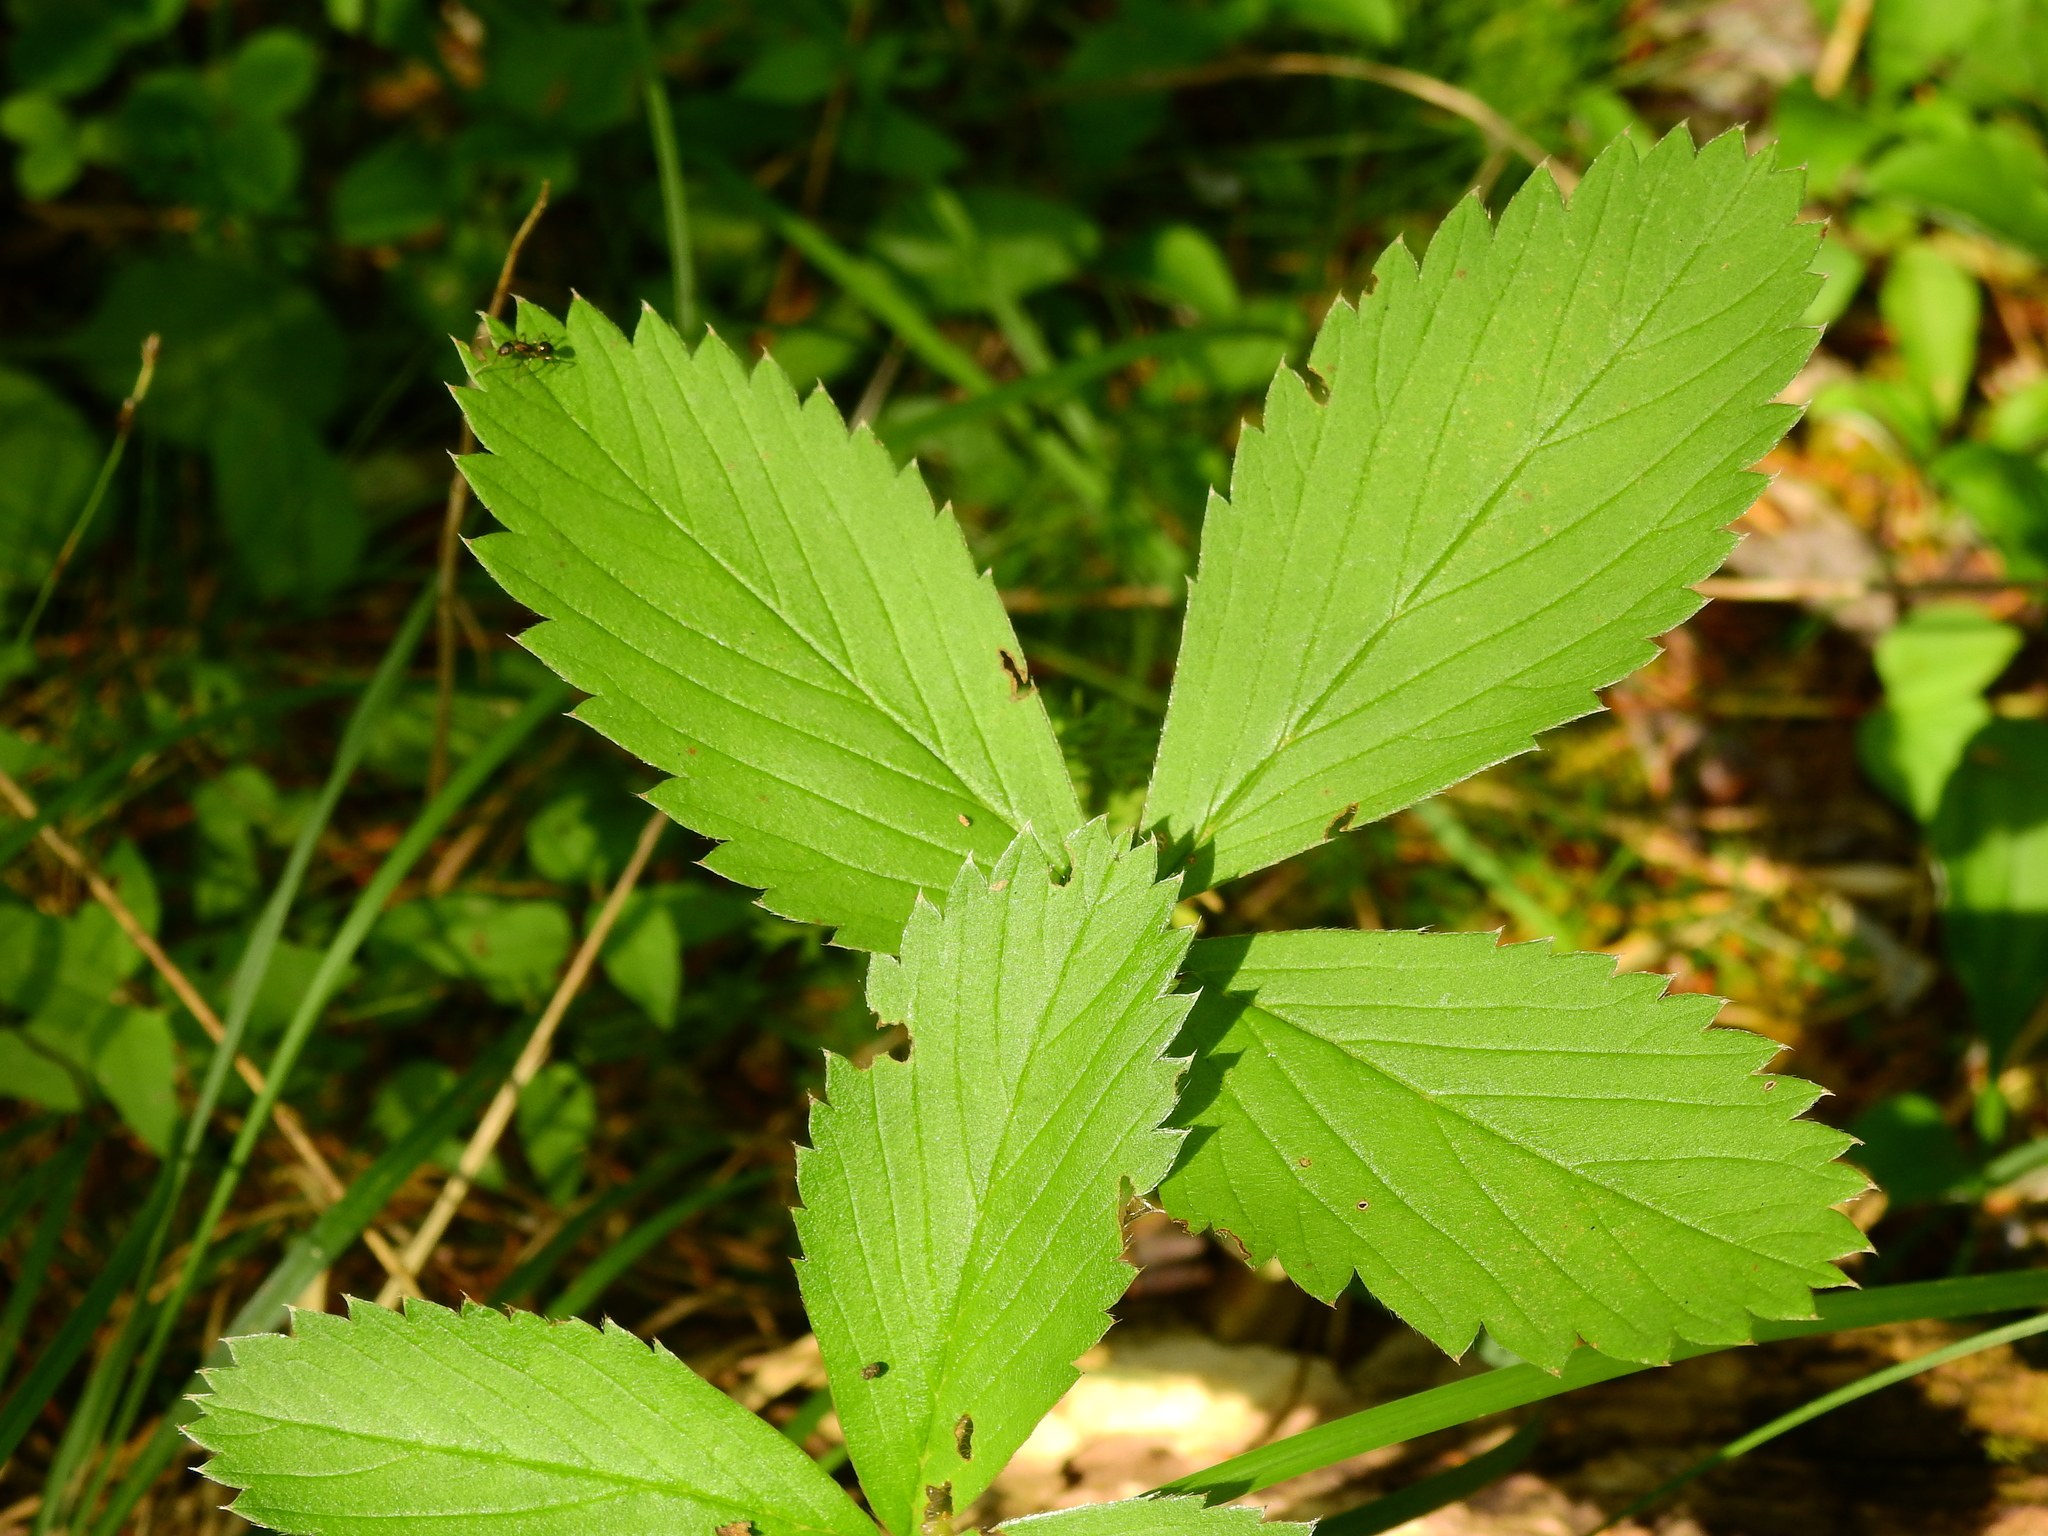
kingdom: Plantae
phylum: Tracheophyta
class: Magnoliopsida
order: Rosales
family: Rosaceae
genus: Fragaria
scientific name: Fragaria virginiana
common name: Thickleaved wild strawberry
